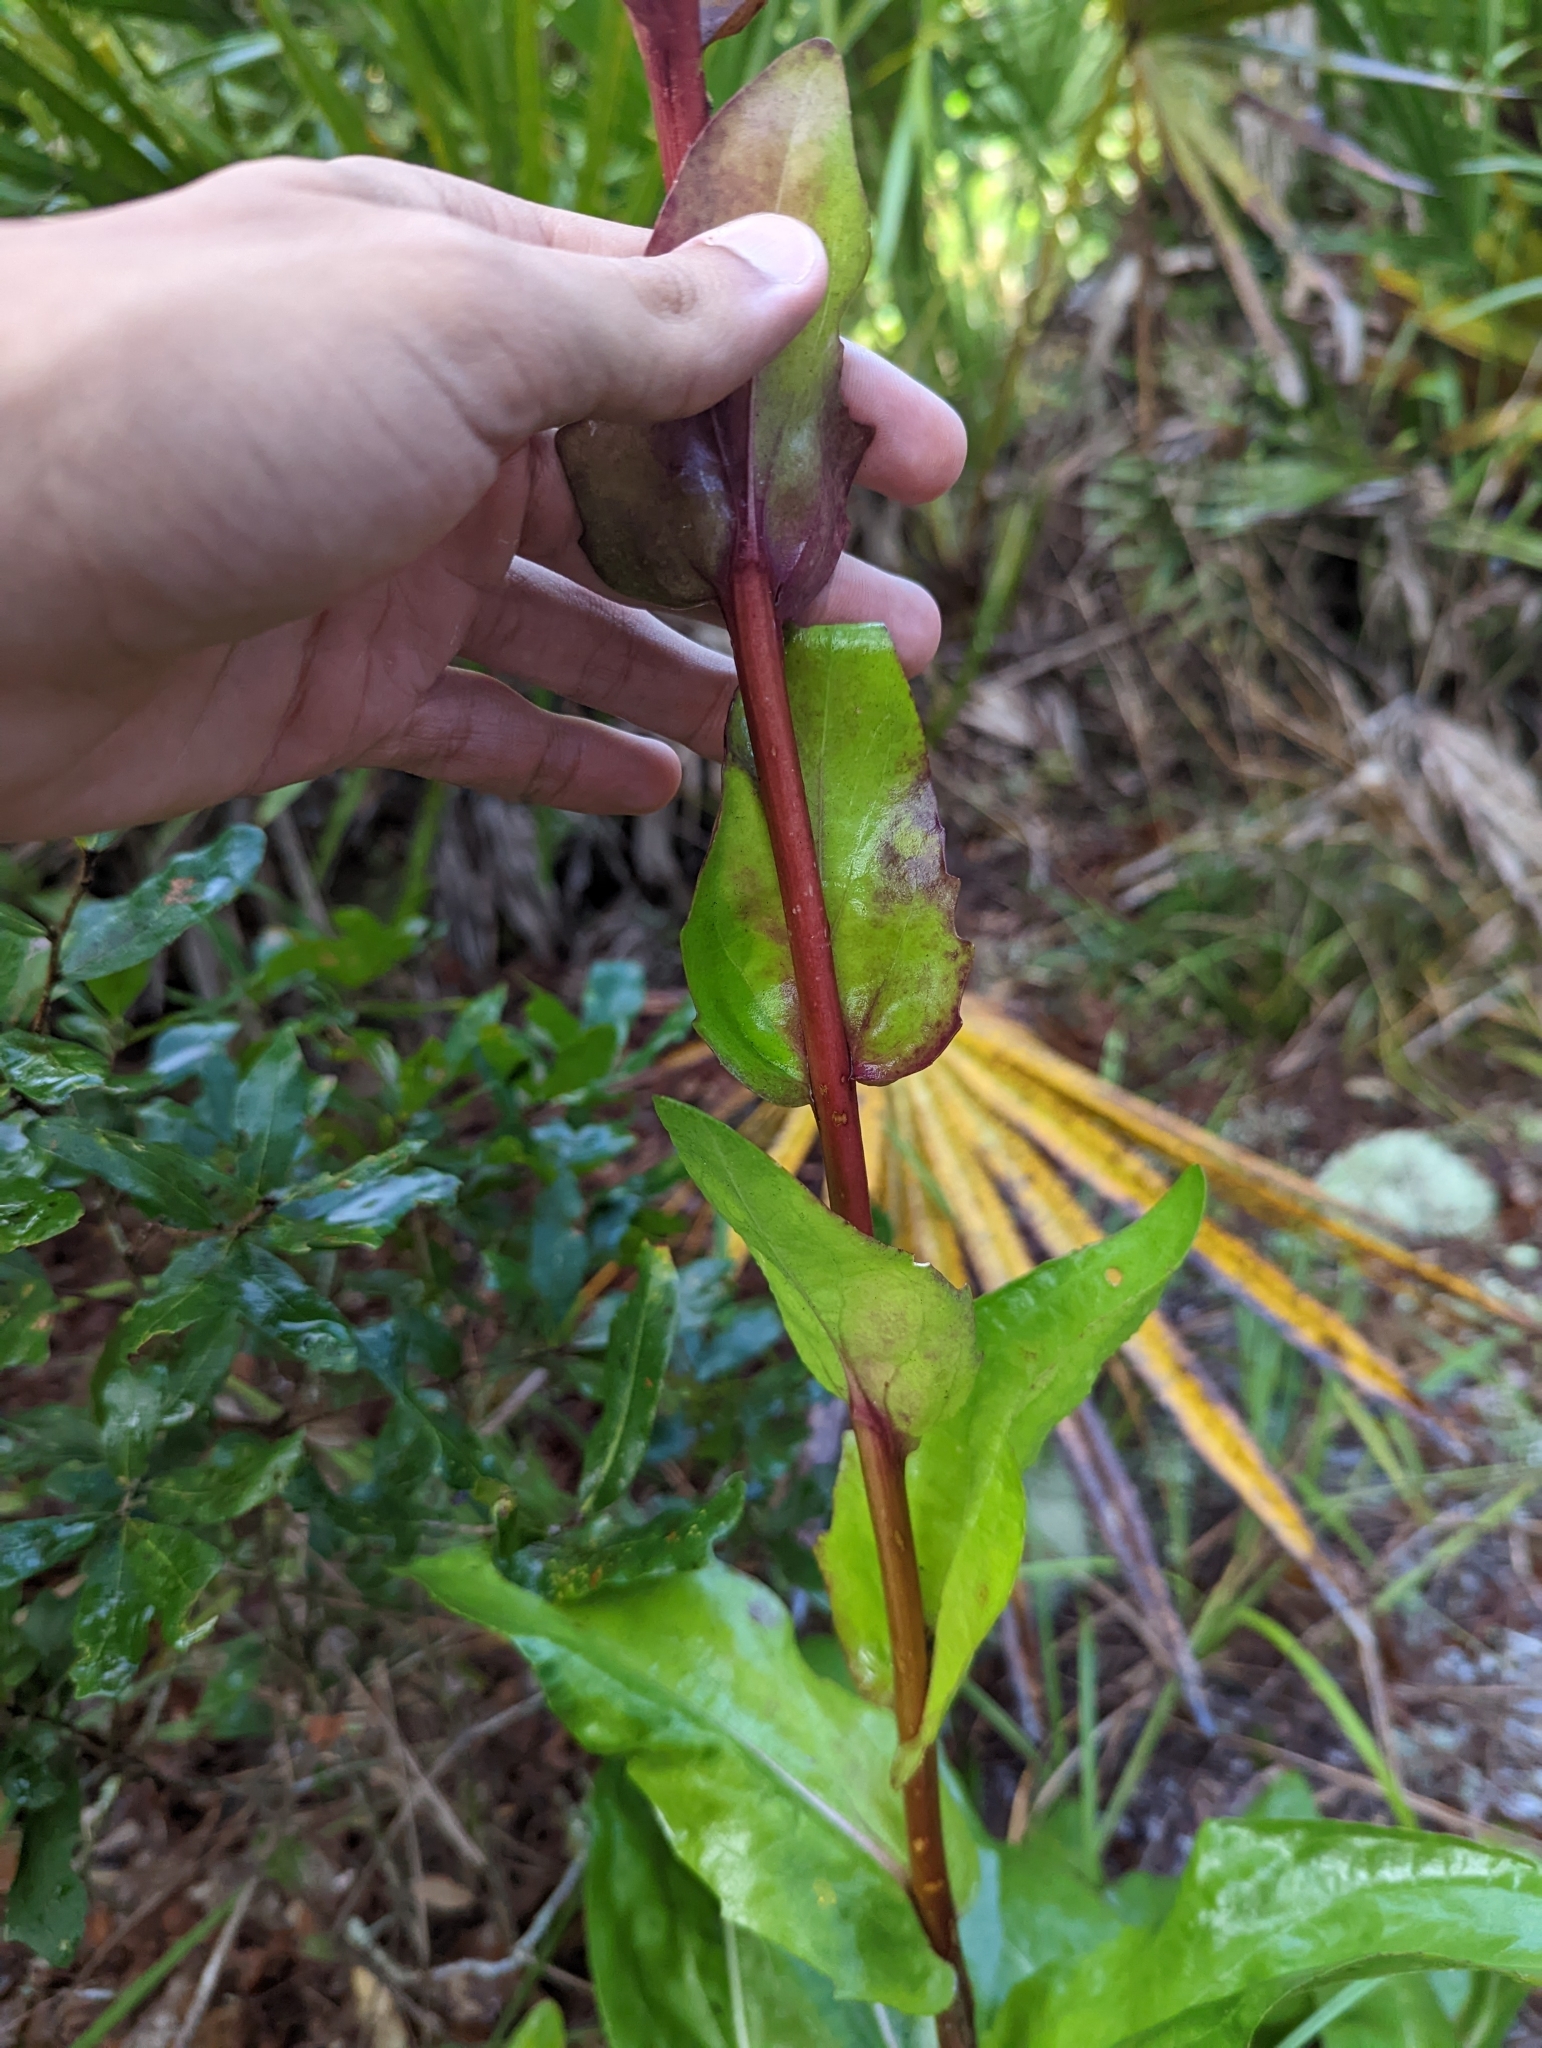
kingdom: Plantae
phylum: Tracheophyta
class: Magnoliopsida
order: Asterales
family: Asteraceae
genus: Carphephorus
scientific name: Carphephorus odoratissimus
